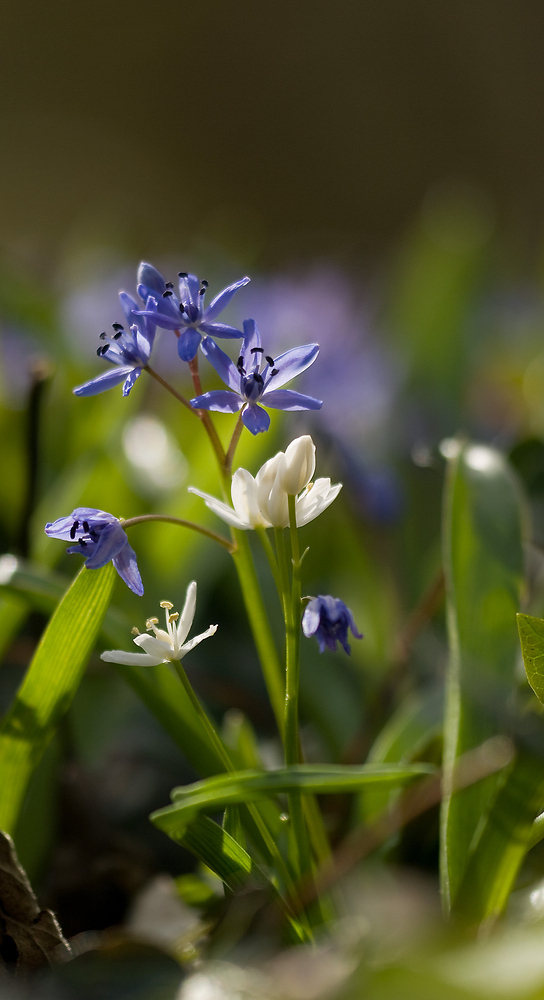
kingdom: Plantae
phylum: Tracheophyta
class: Liliopsida
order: Asparagales
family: Asparagaceae
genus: Scilla
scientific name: Scilla bifolia
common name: Alpine squill
